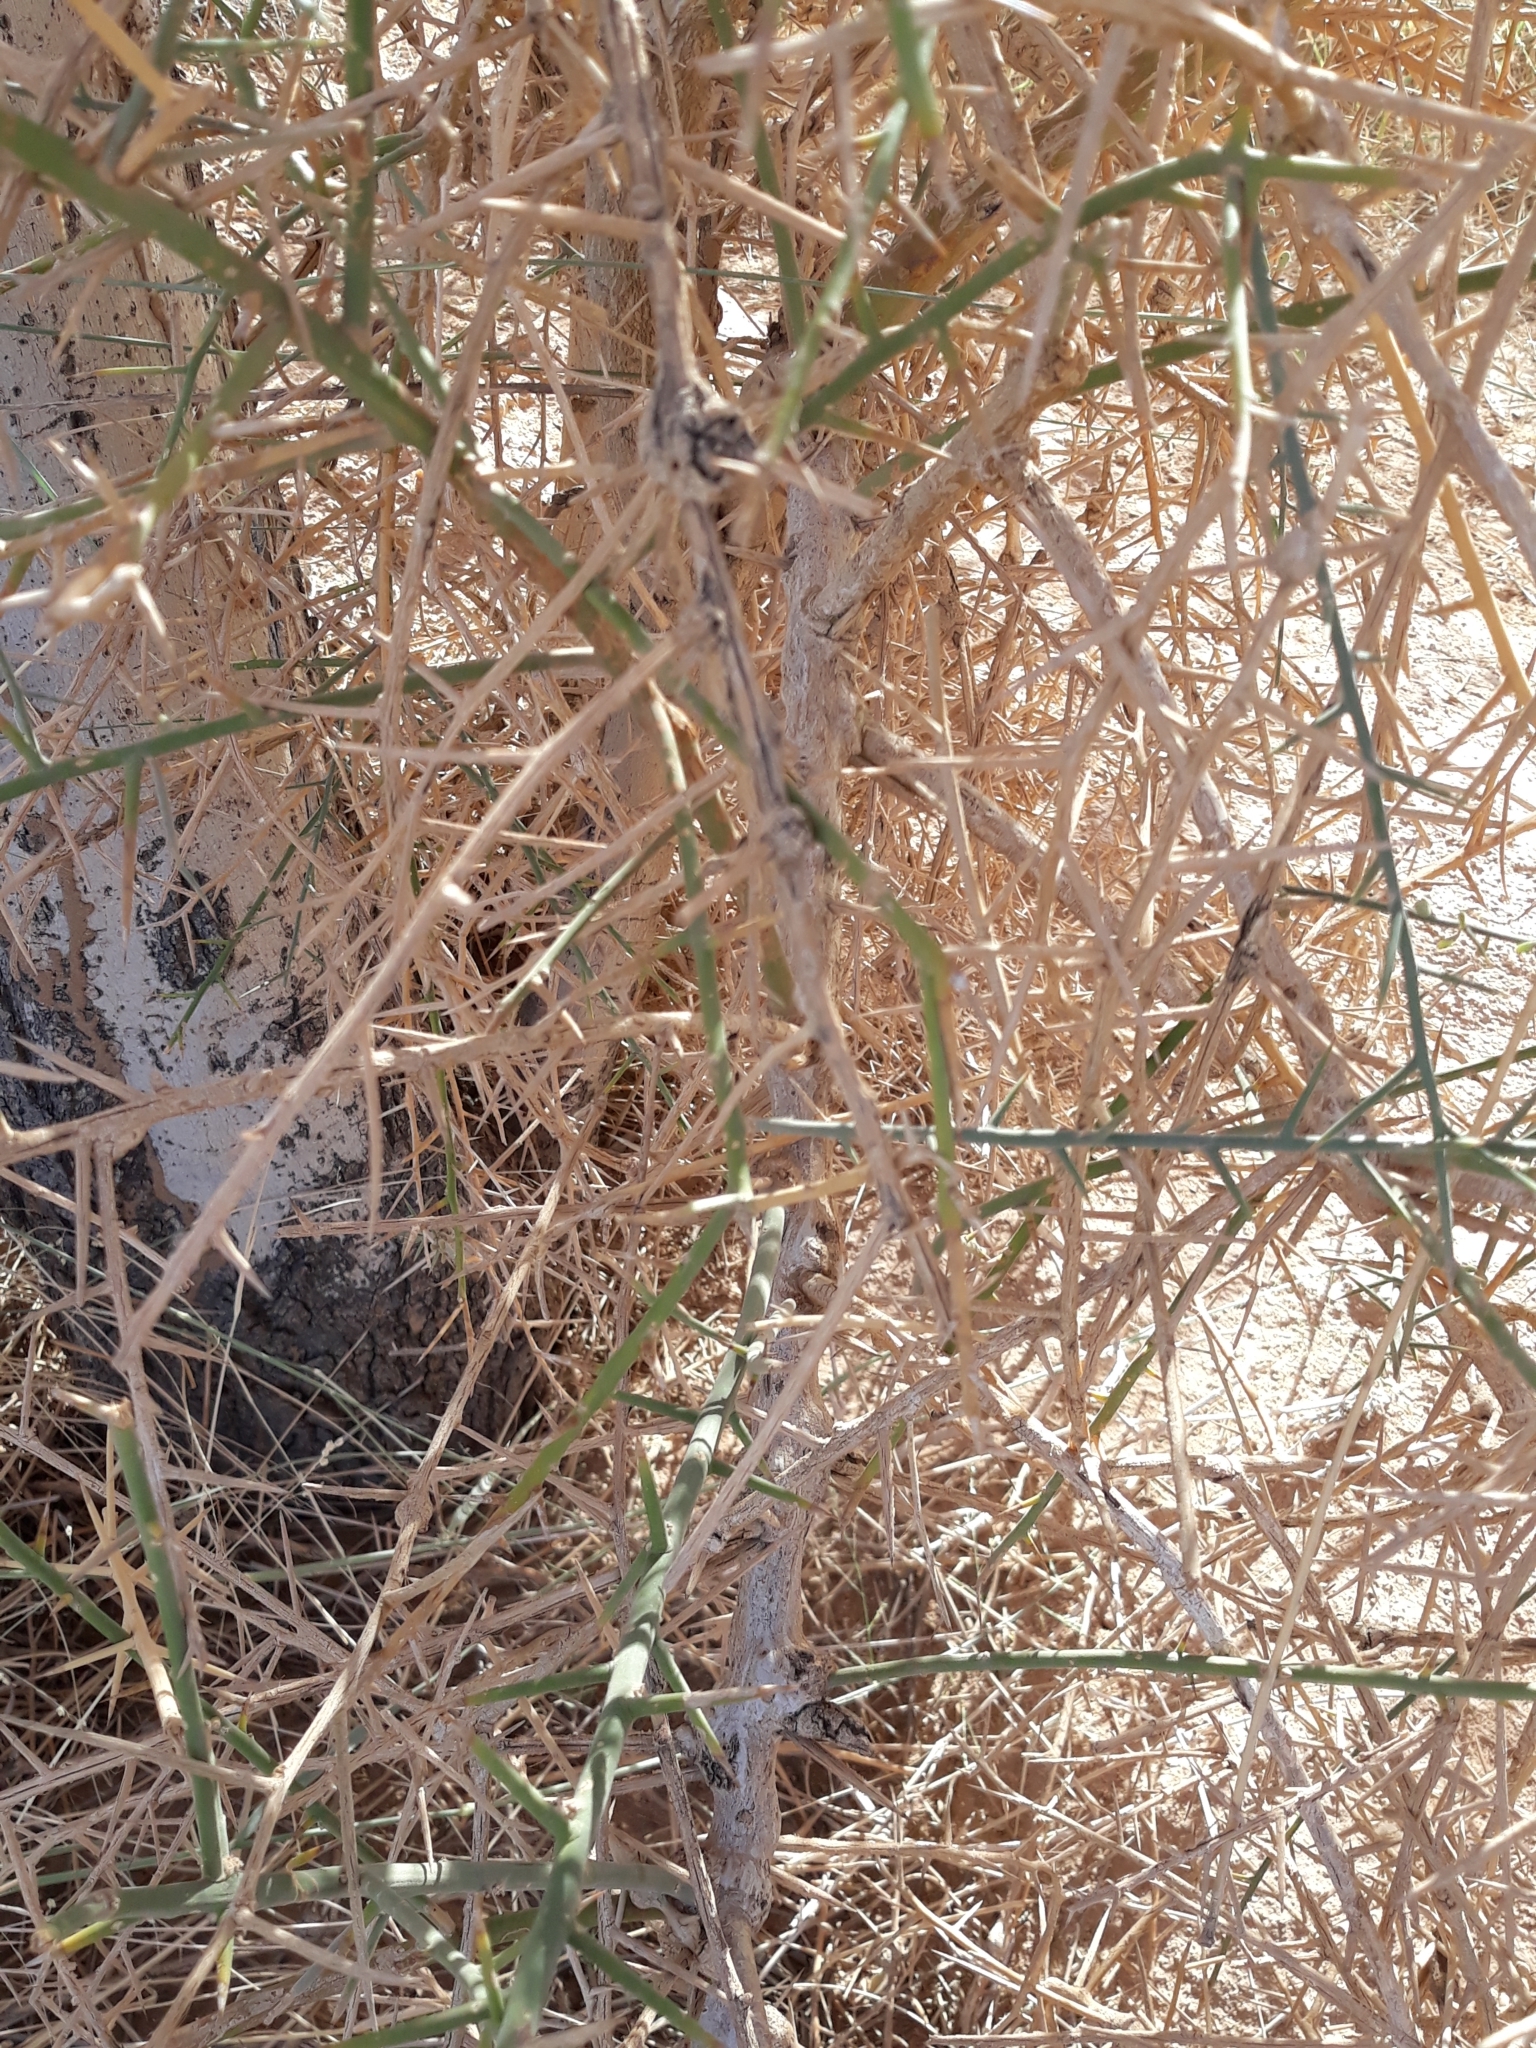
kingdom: Plantae
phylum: Tracheophyta
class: Magnoliopsida
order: Zygophyllales
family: Zygophyllaceae
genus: Balanites
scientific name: Balanites aegyptiaca
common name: Balanites
